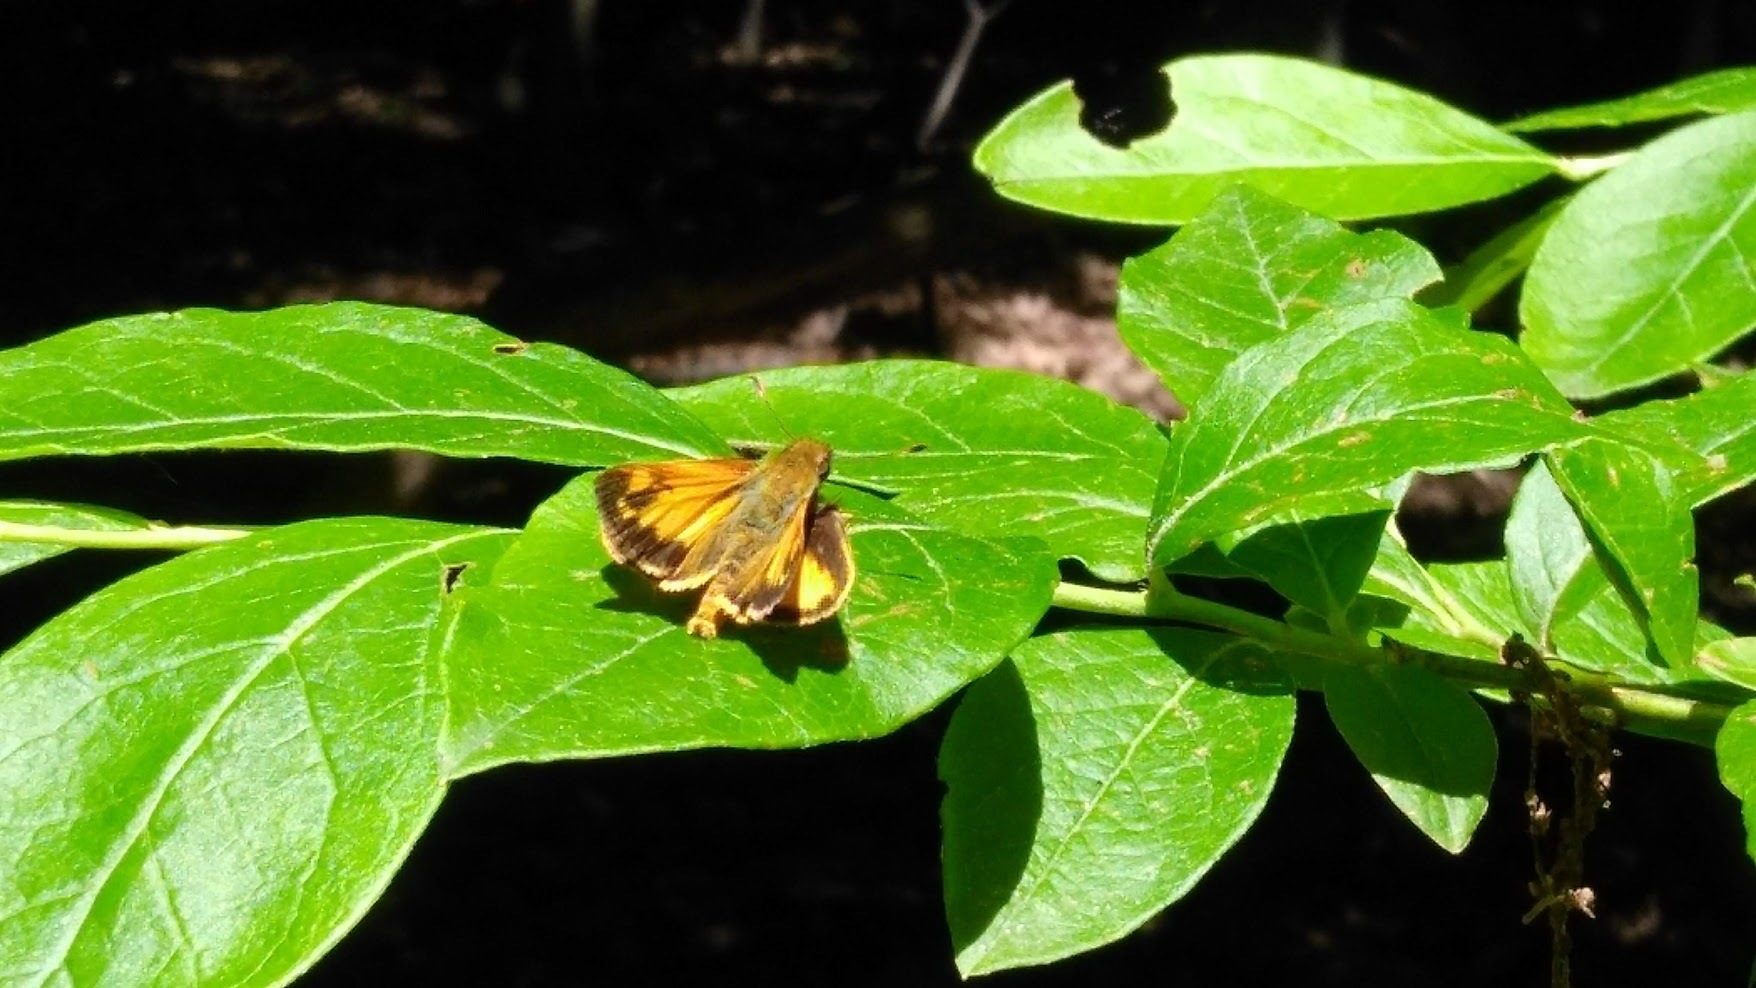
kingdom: Animalia
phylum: Arthropoda
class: Insecta
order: Lepidoptera
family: Hesperiidae
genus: Lon
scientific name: Lon zabulon
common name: Zabulon skipper
